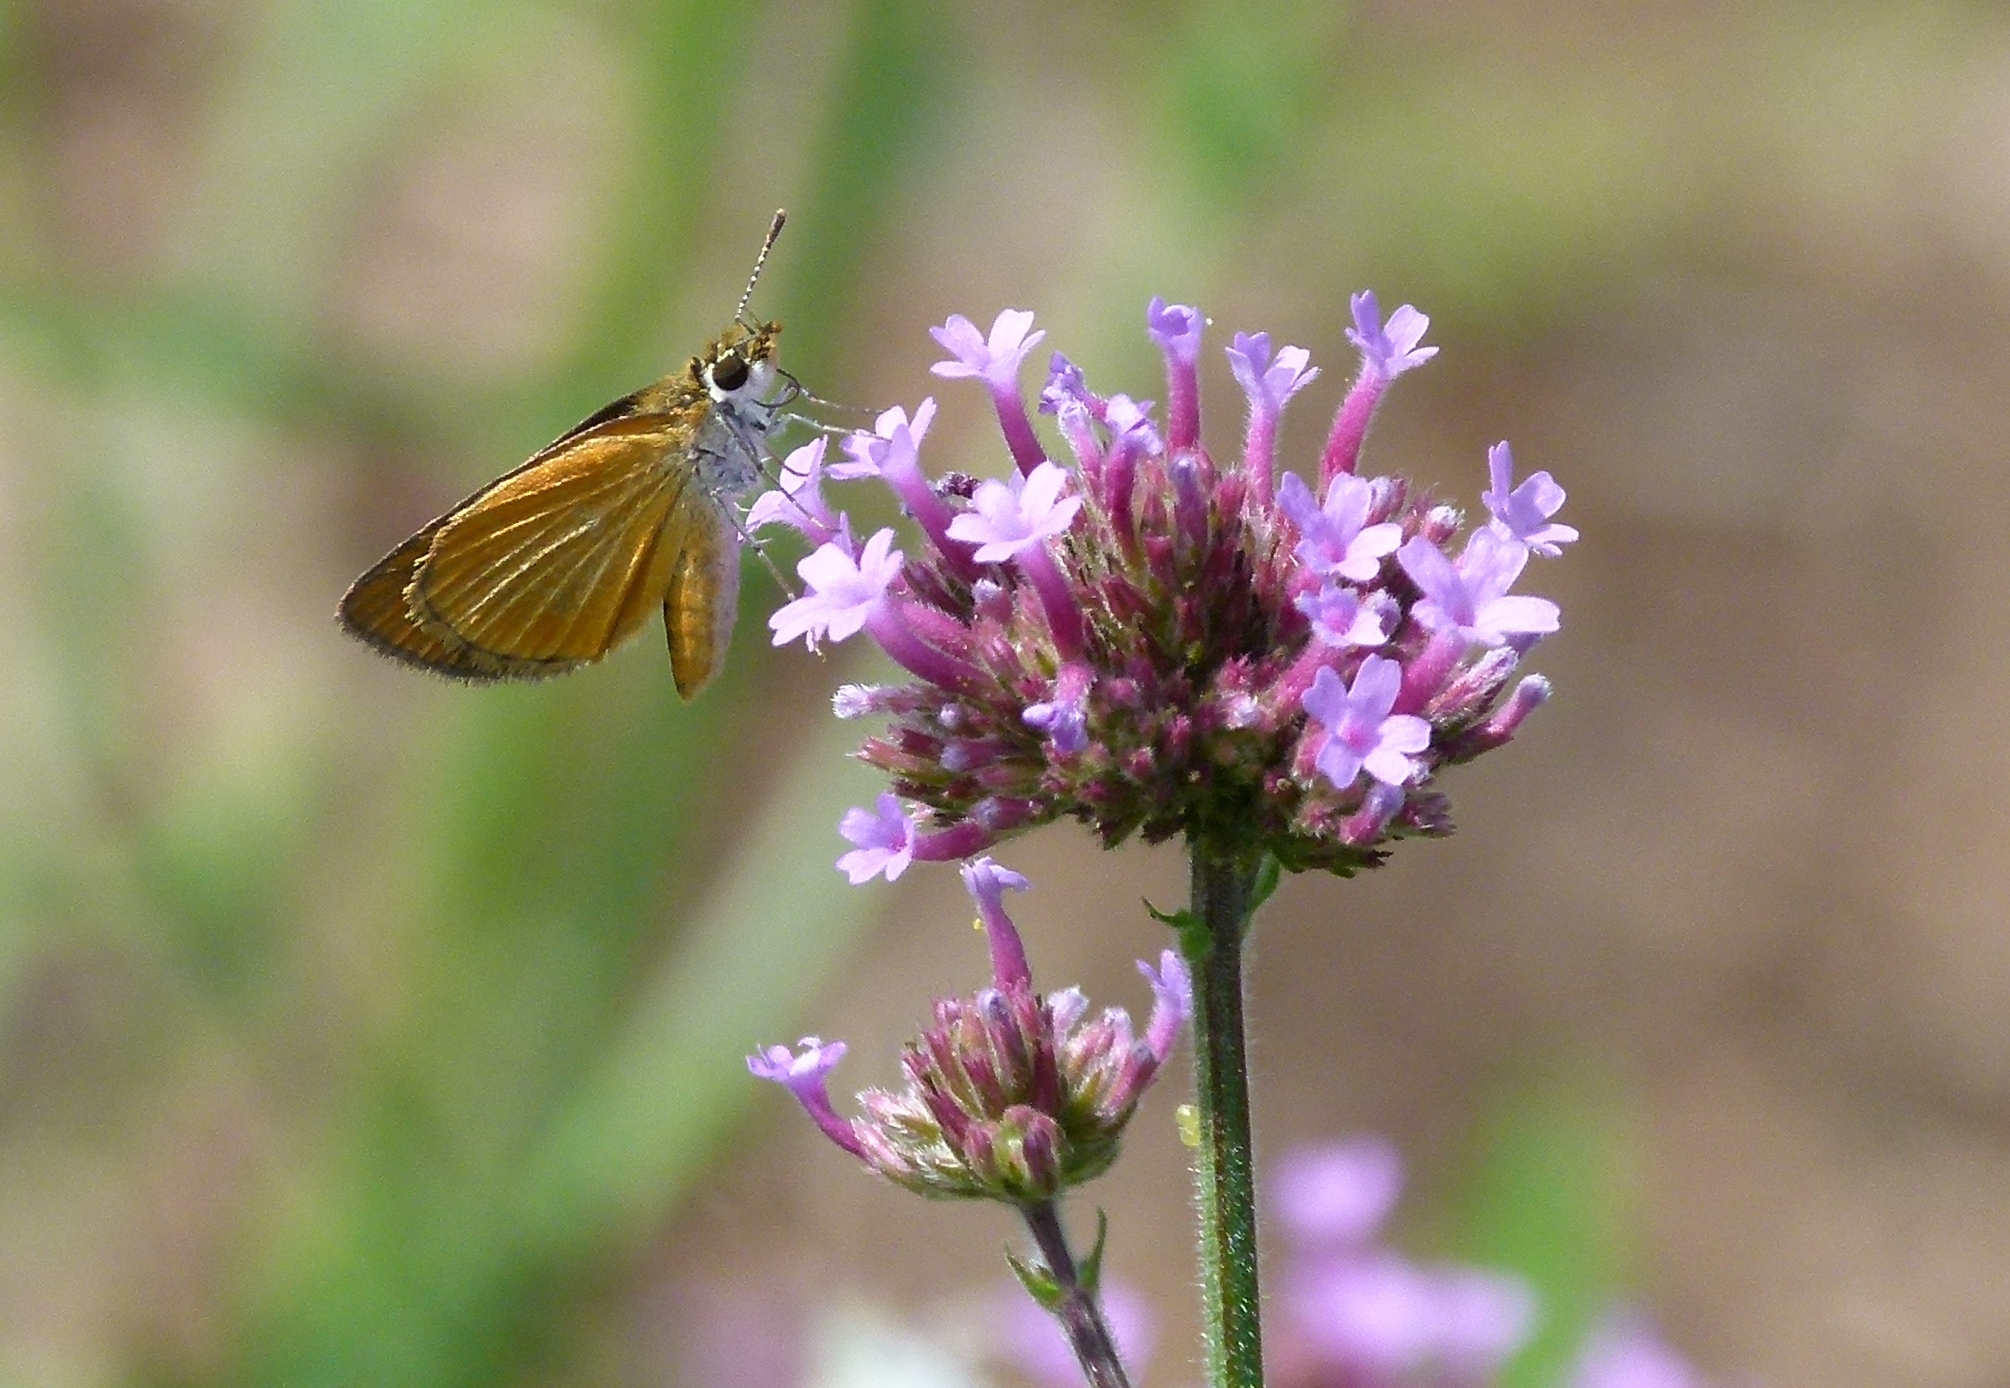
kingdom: Animalia
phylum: Arthropoda
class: Insecta
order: Lepidoptera
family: Hesperiidae
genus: Ancyloxypha
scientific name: Ancyloxypha numitor
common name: Least skipper
